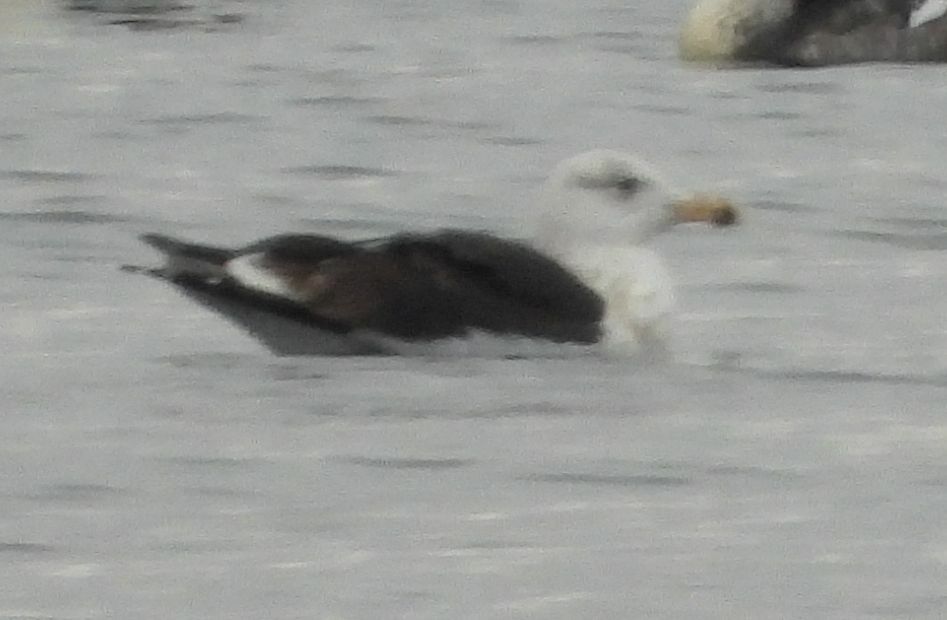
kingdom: Animalia
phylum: Chordata
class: Aves
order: Charadriiformes
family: Laridae
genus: Larus
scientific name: Larus marinus
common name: Great black-backed gull
